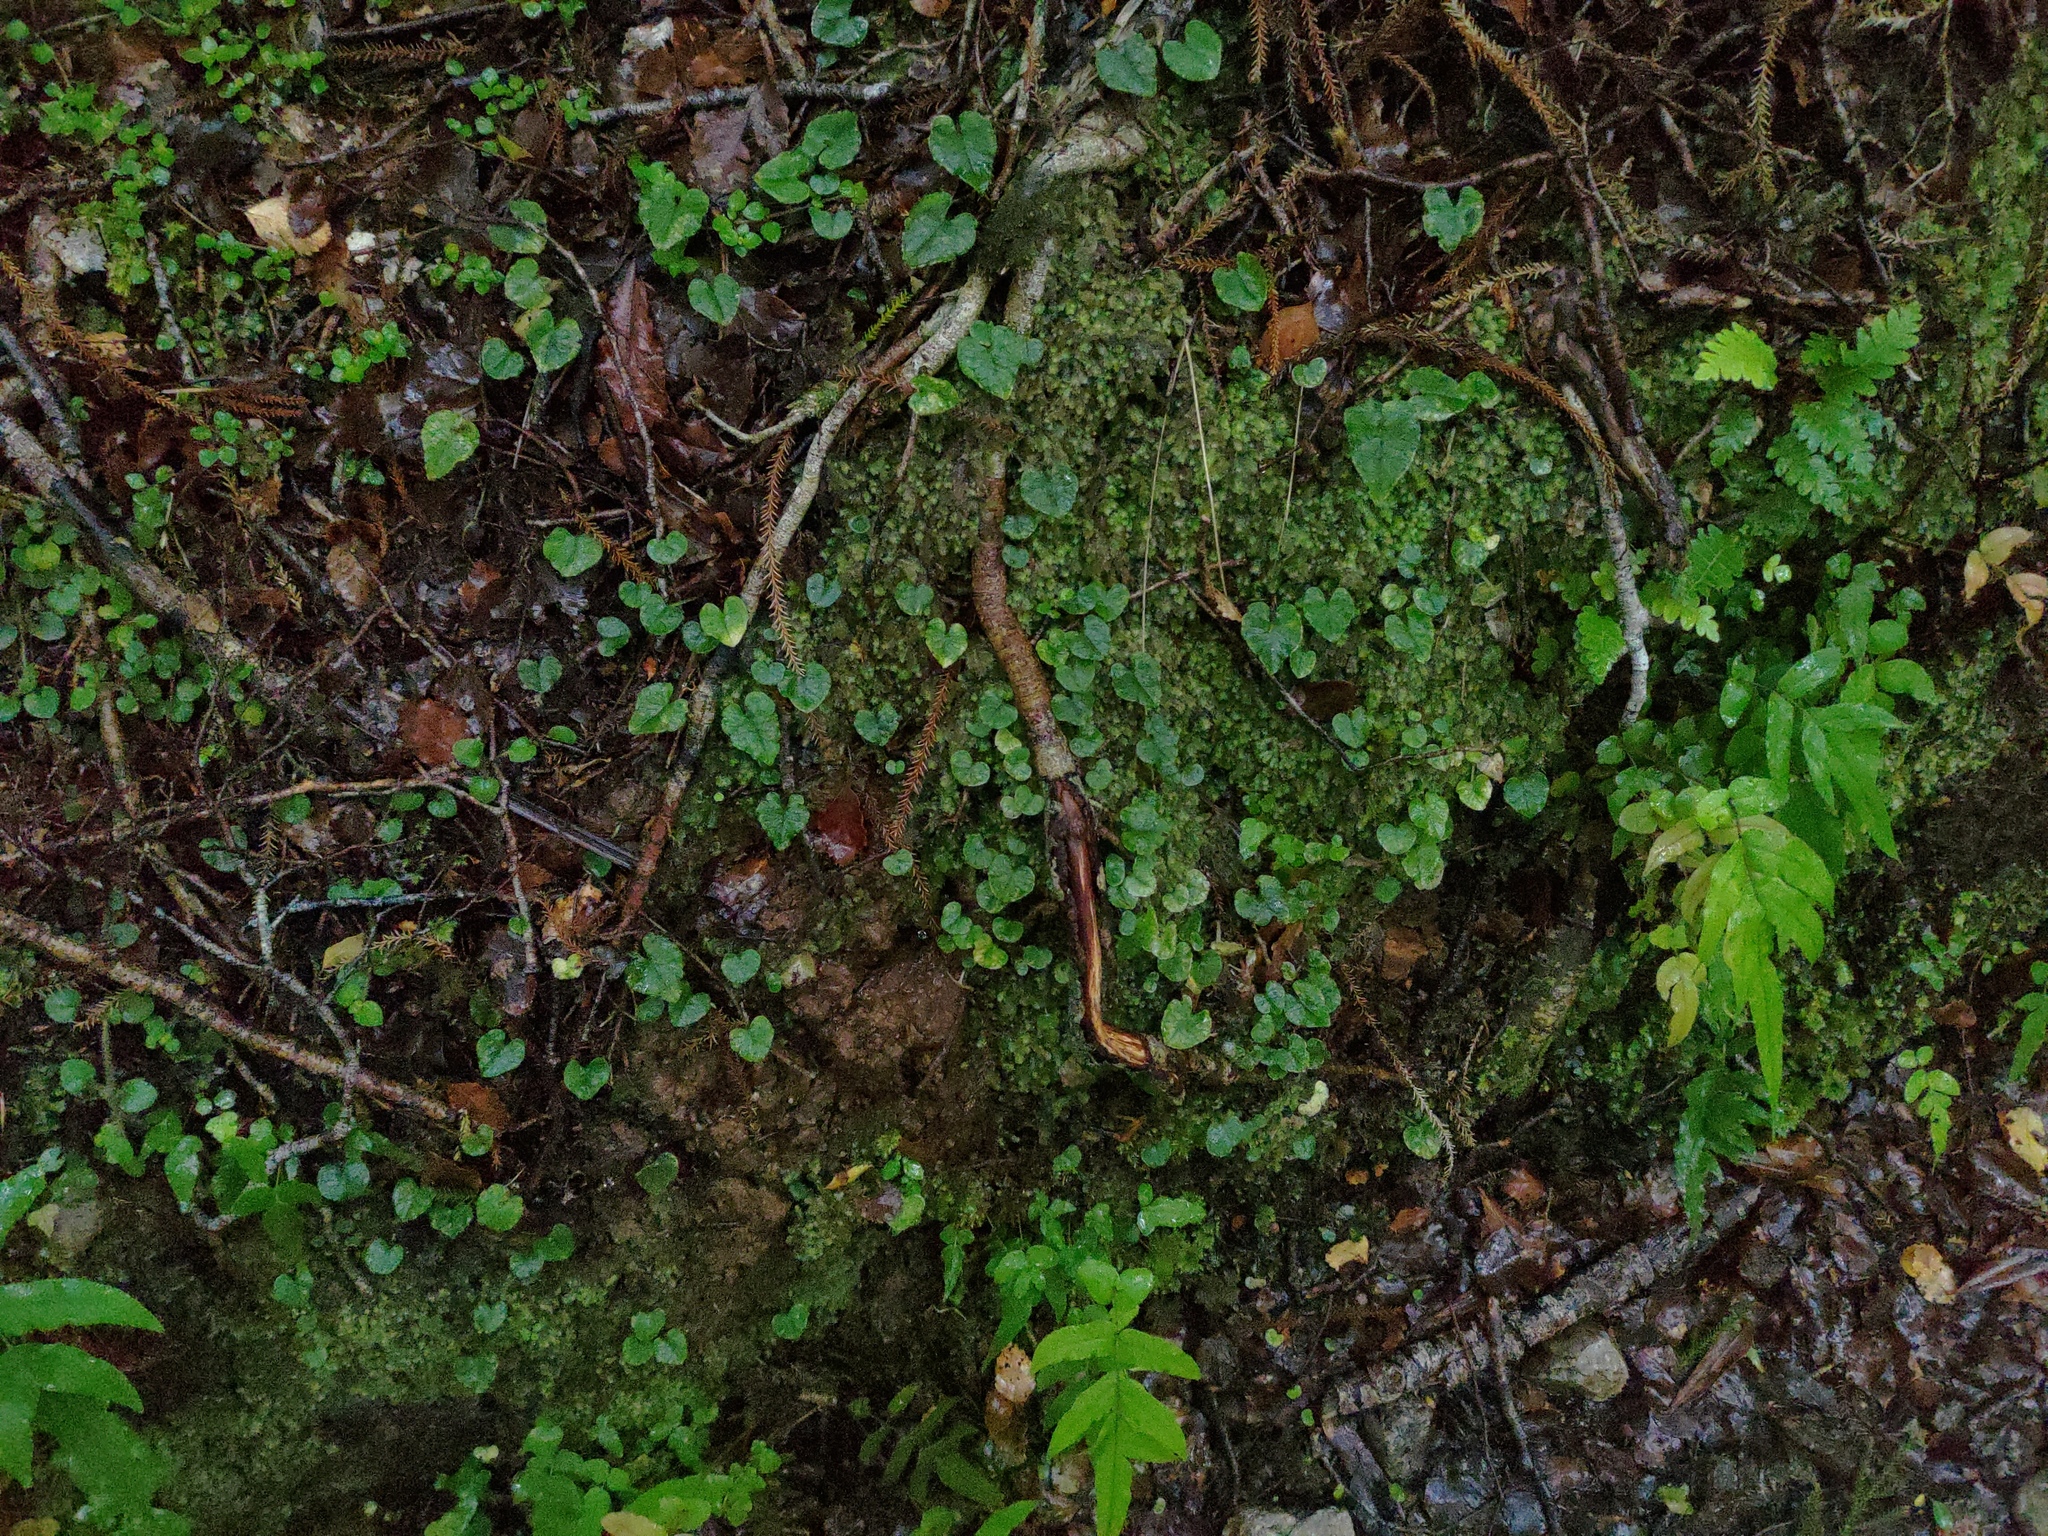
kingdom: Plantae
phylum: Tracheophyta
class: Liliopsida
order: Asparagales
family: Orchidaceae
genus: Corybas
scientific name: Corybas acuminatus
